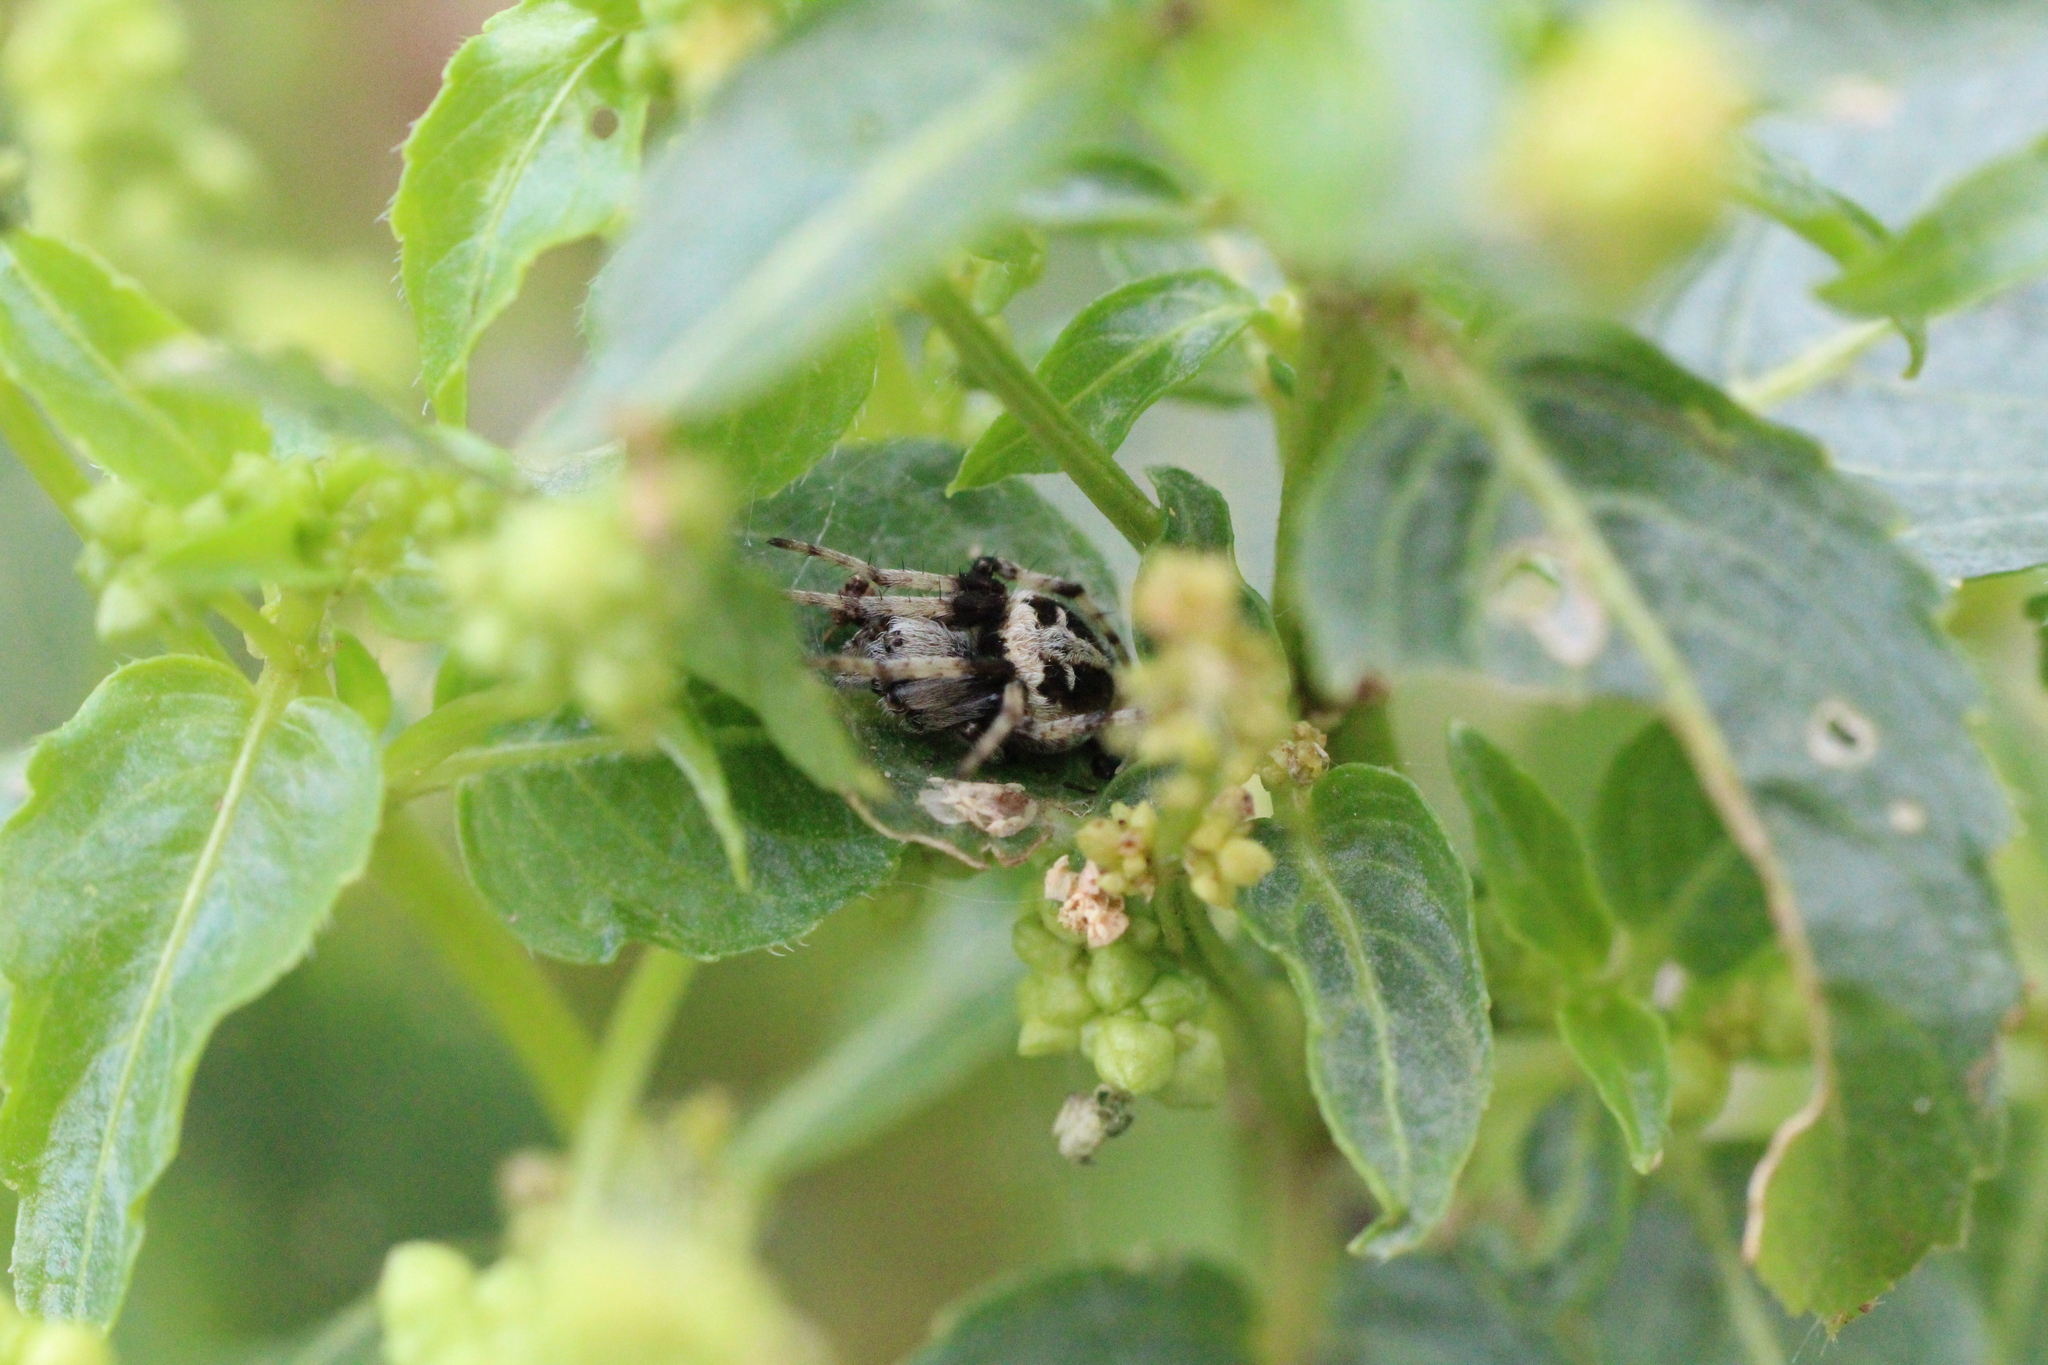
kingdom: Animalia
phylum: Arthropoda
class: Arachnida
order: Araneae
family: Araneidae
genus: Agalenatea
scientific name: Agalenatea redii
